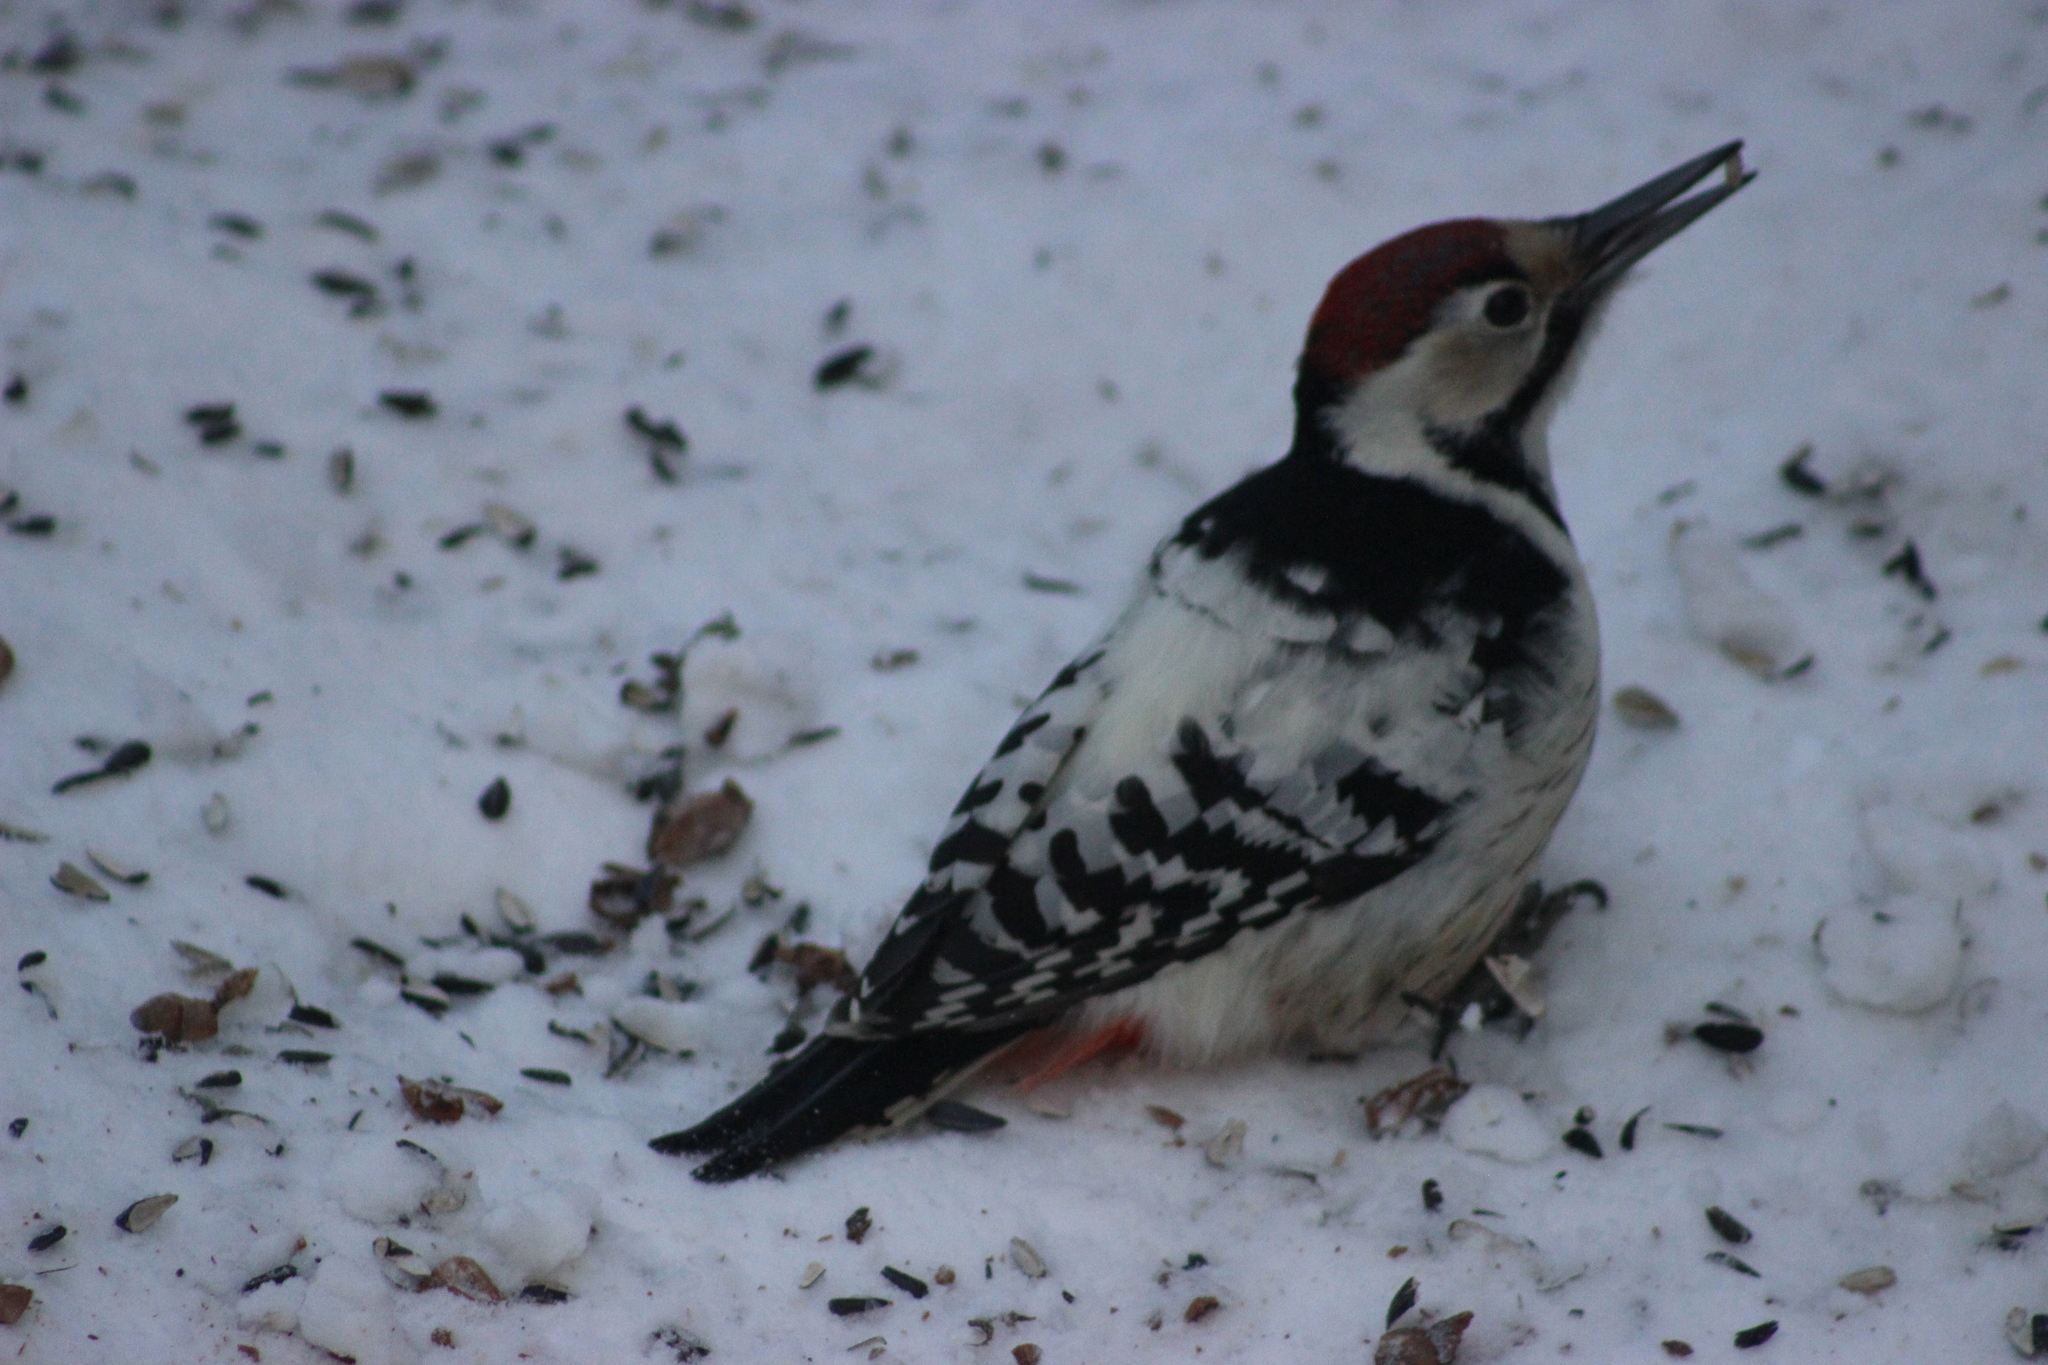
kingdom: Animalia
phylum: Chordata
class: Aves
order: Piciformes
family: Picidae
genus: Dendrocopos
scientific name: Dendrocopos leucotos
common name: White-backed woodpecker
